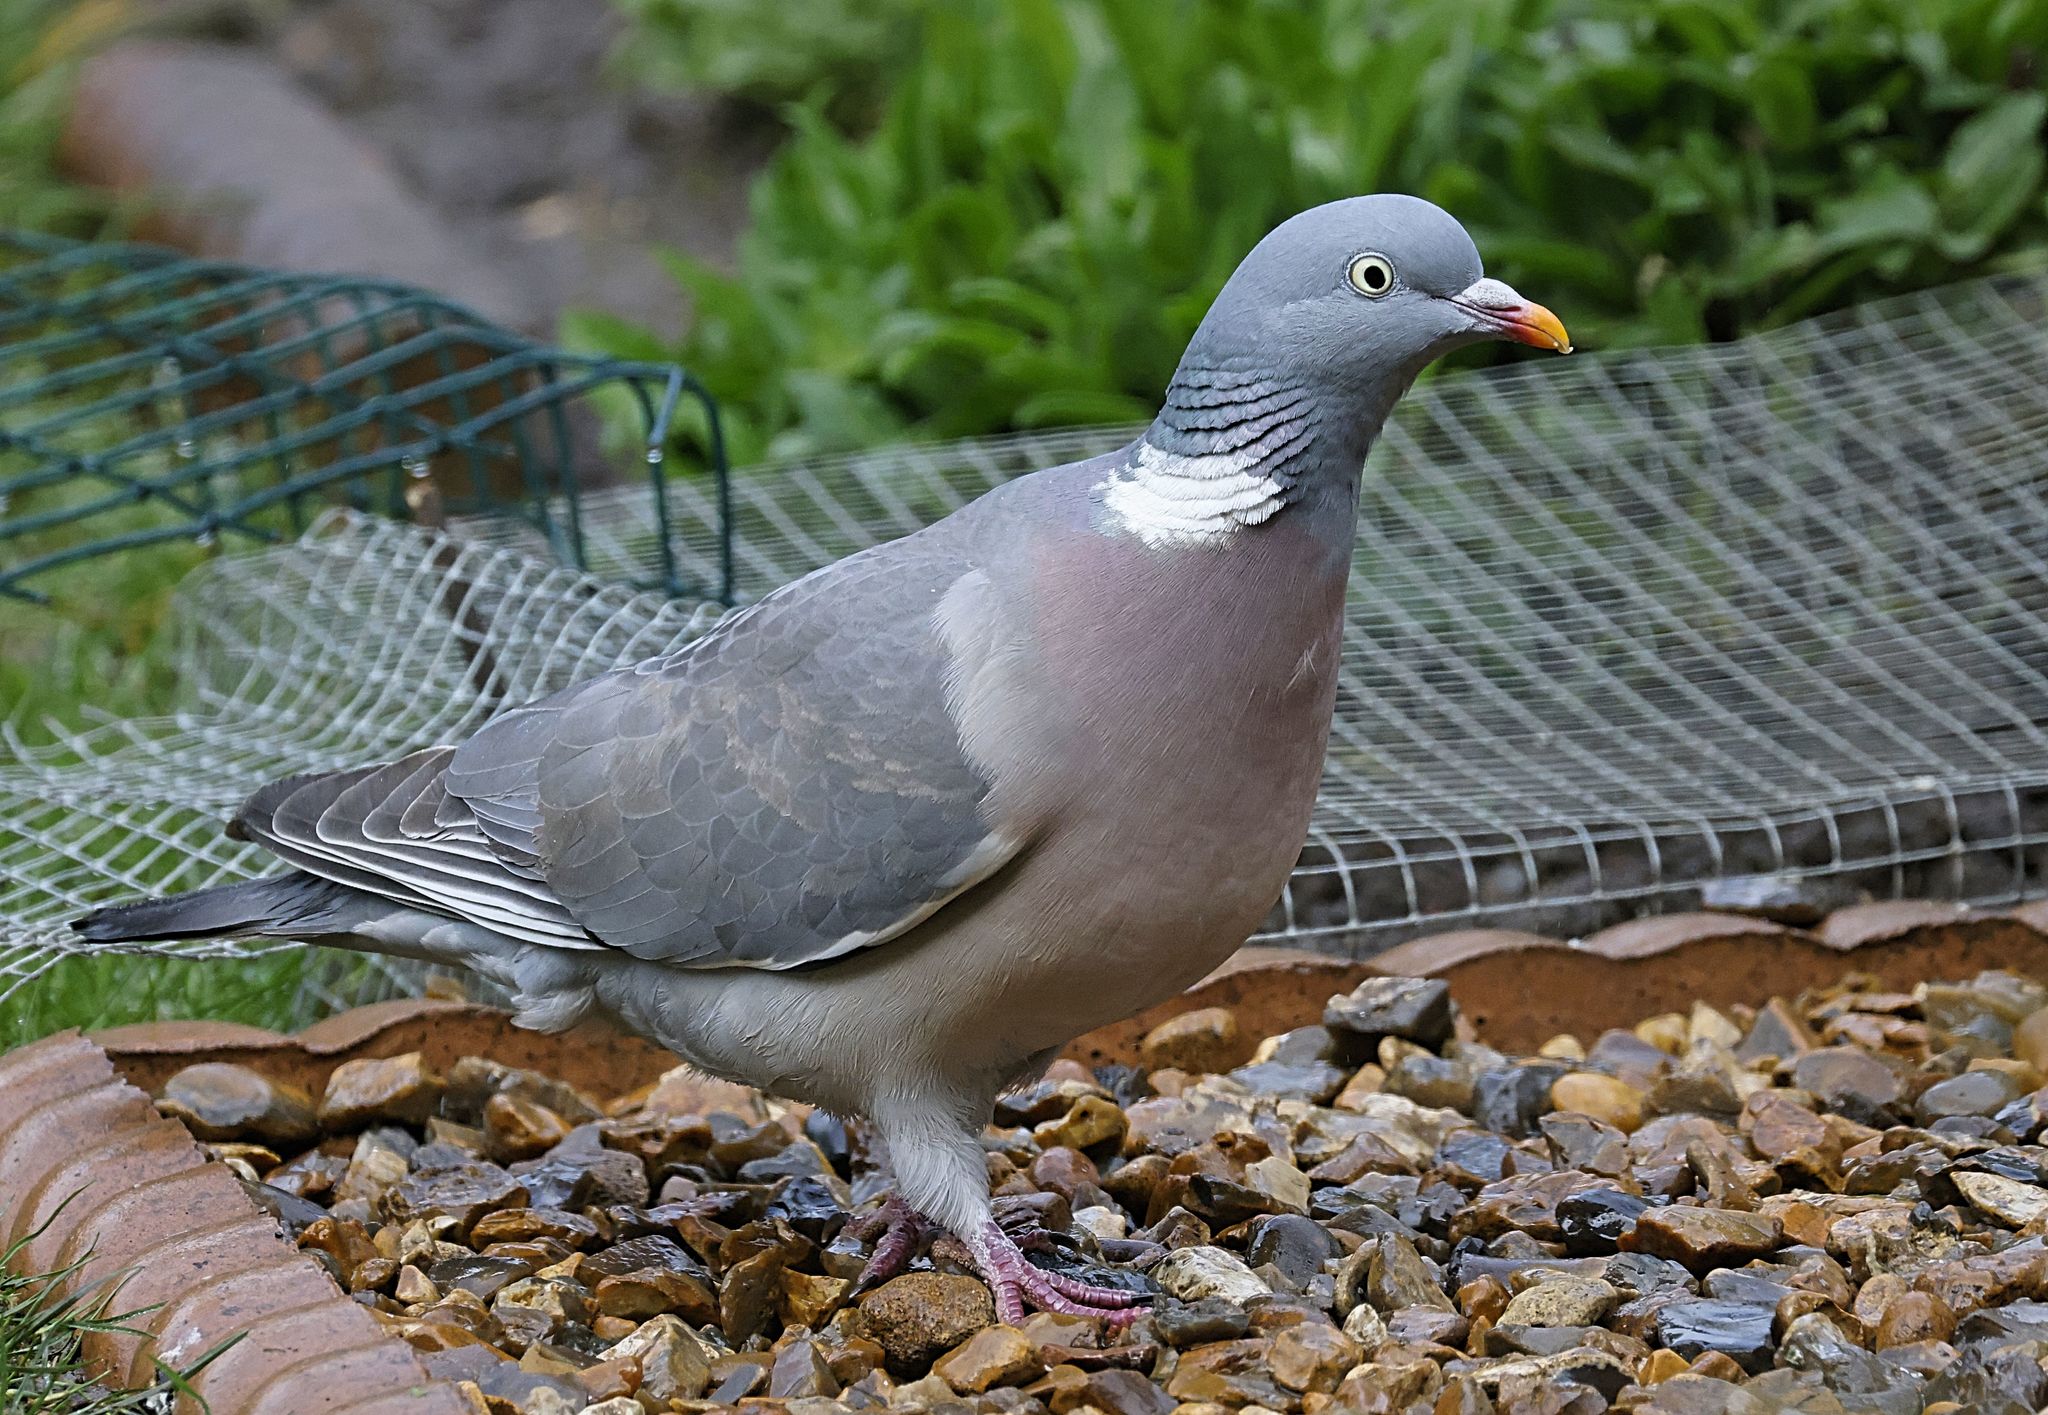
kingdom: Animalia
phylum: Chordata
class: Aves
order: Columbiformes
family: Columbidae
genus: Columba
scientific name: Columba palumbus
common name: Common wood pigeon
